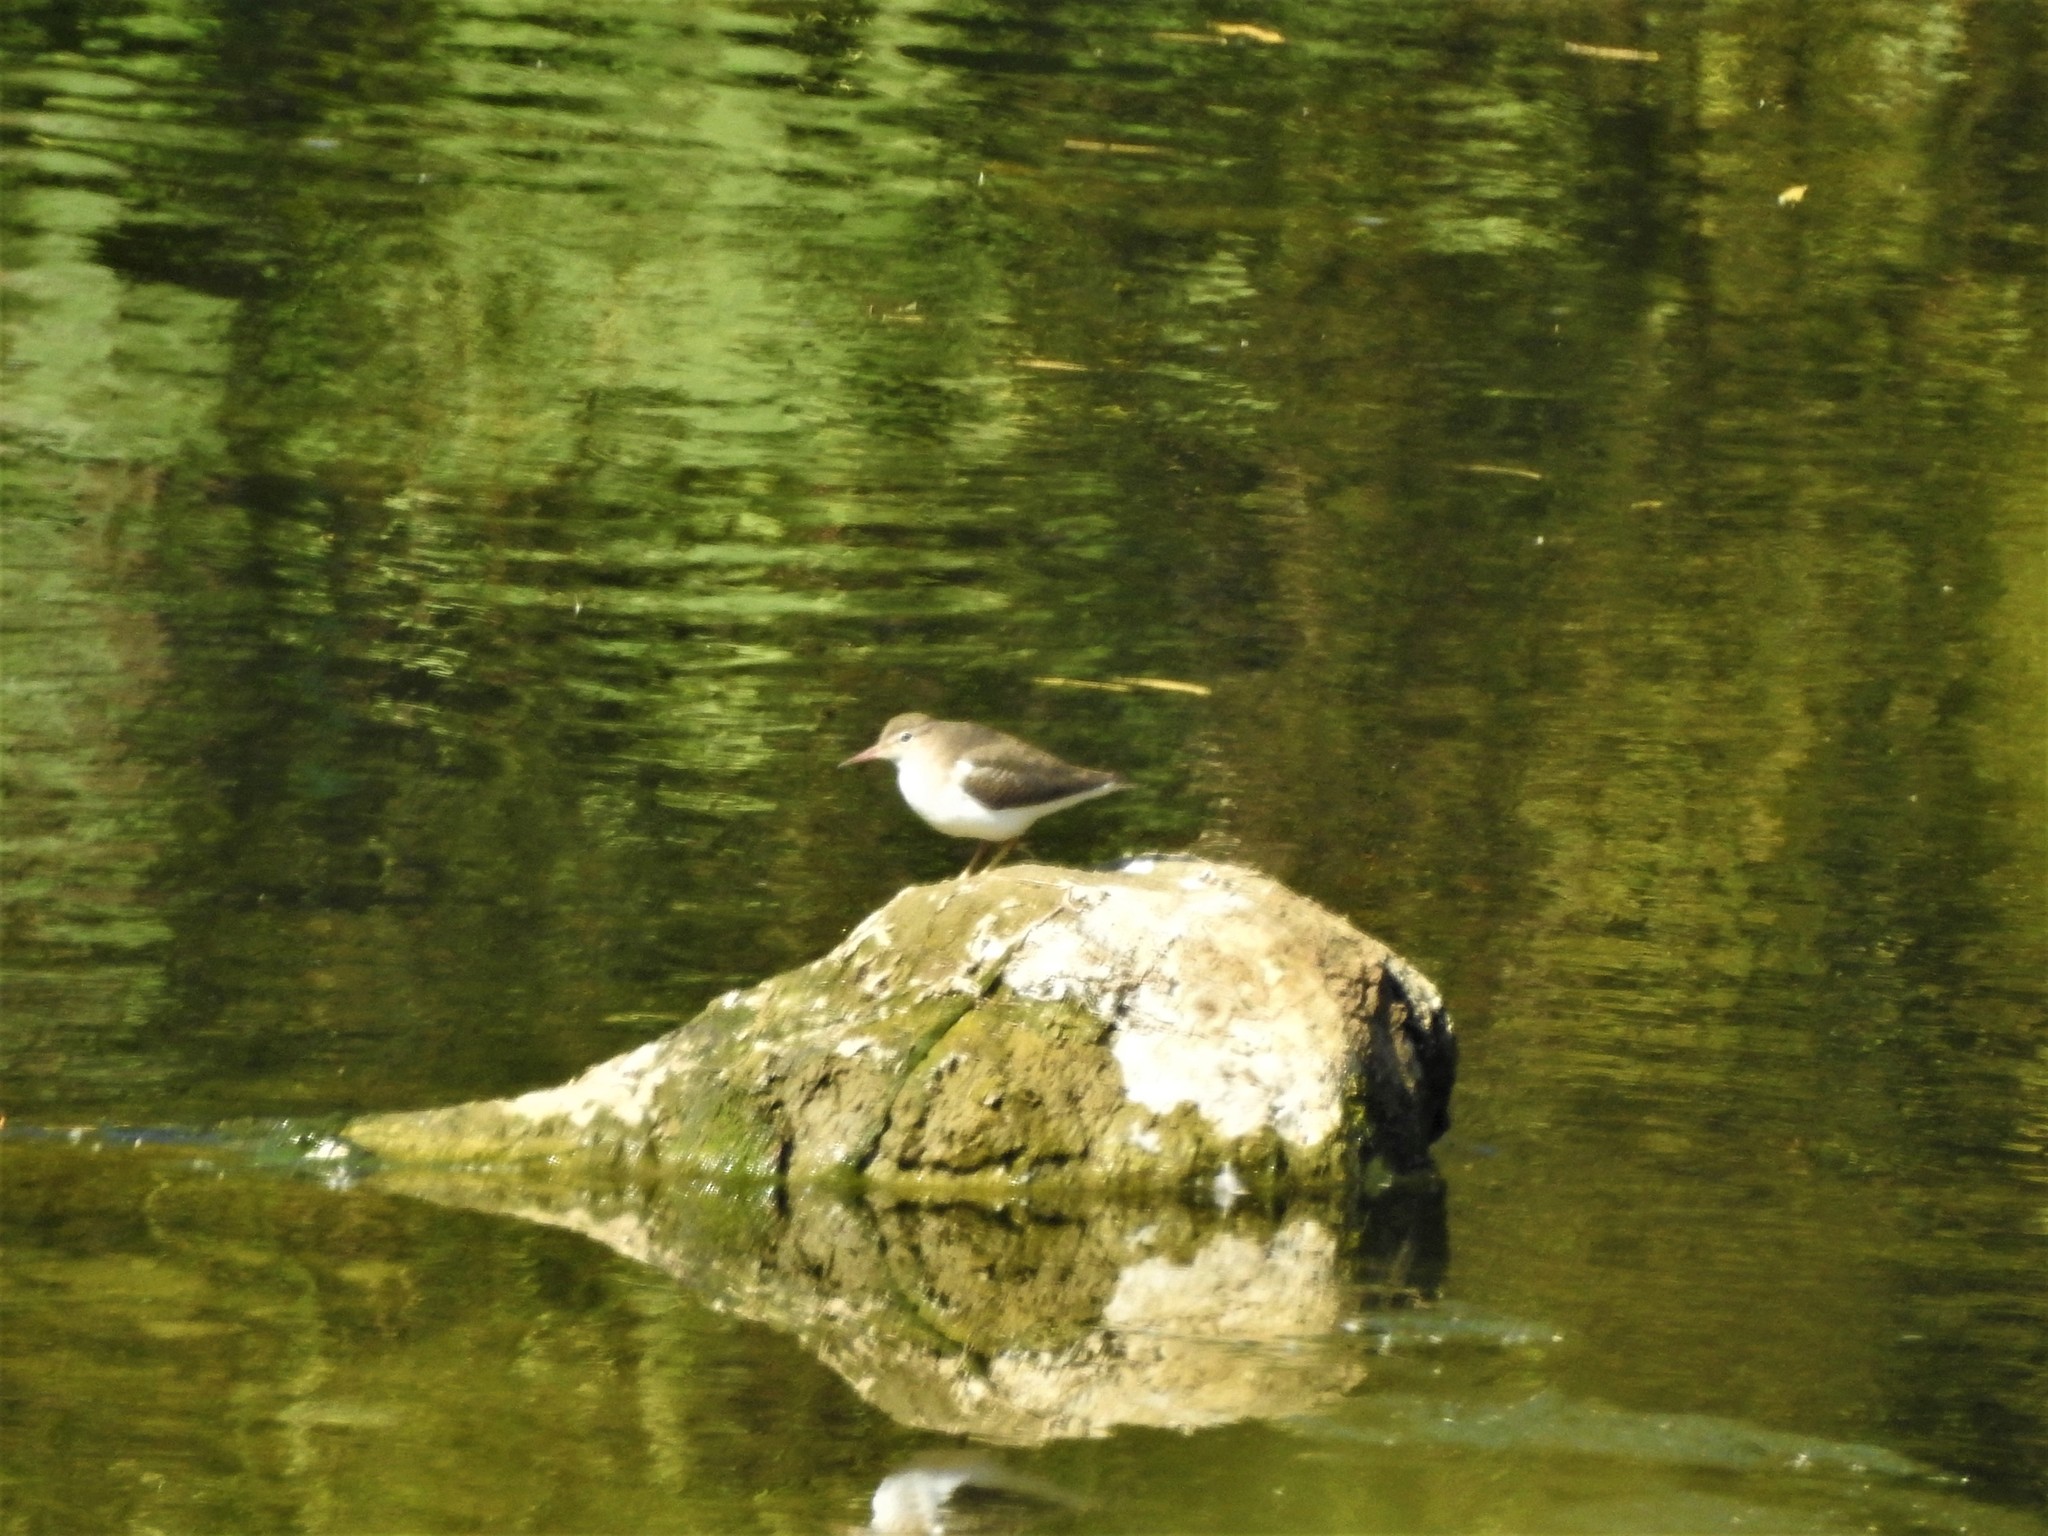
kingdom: Animalia
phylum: Chordata
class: Aves
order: Charadriiformes
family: Scolopacidae
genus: Actitis
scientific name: Actitis macularius
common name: Spotted sandpiper
